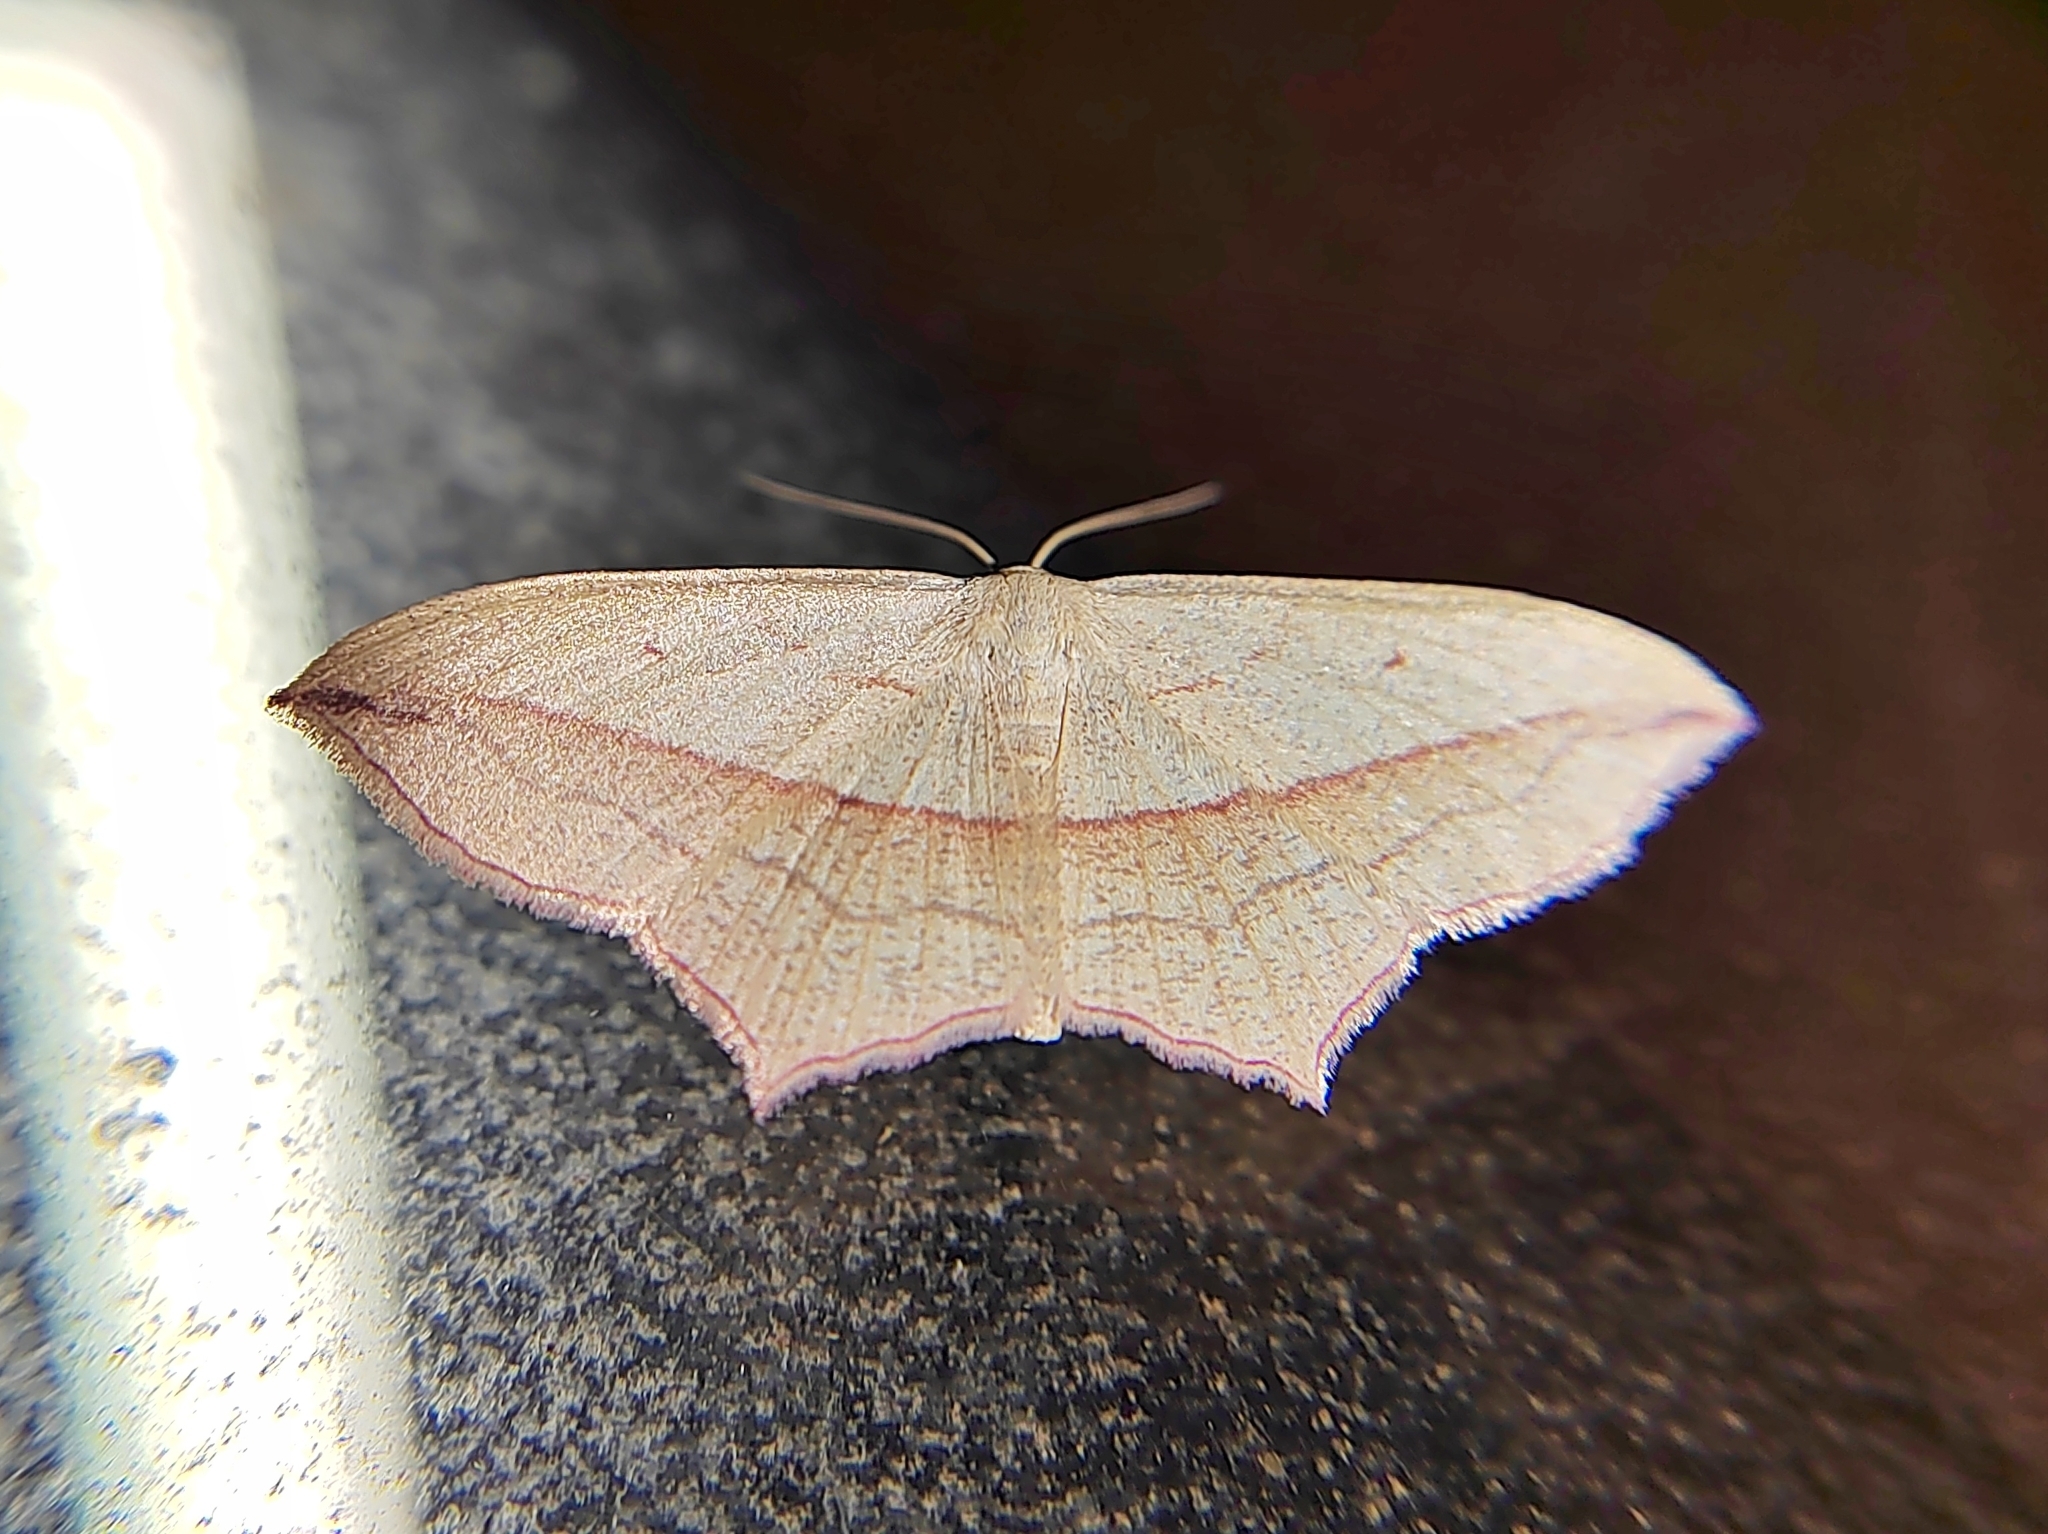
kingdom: Animalia
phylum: Arthropoda
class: Insecta
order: Lepidoptera
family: Geometridae
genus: Timandra
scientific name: Timandra comae
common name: Blood-vein
